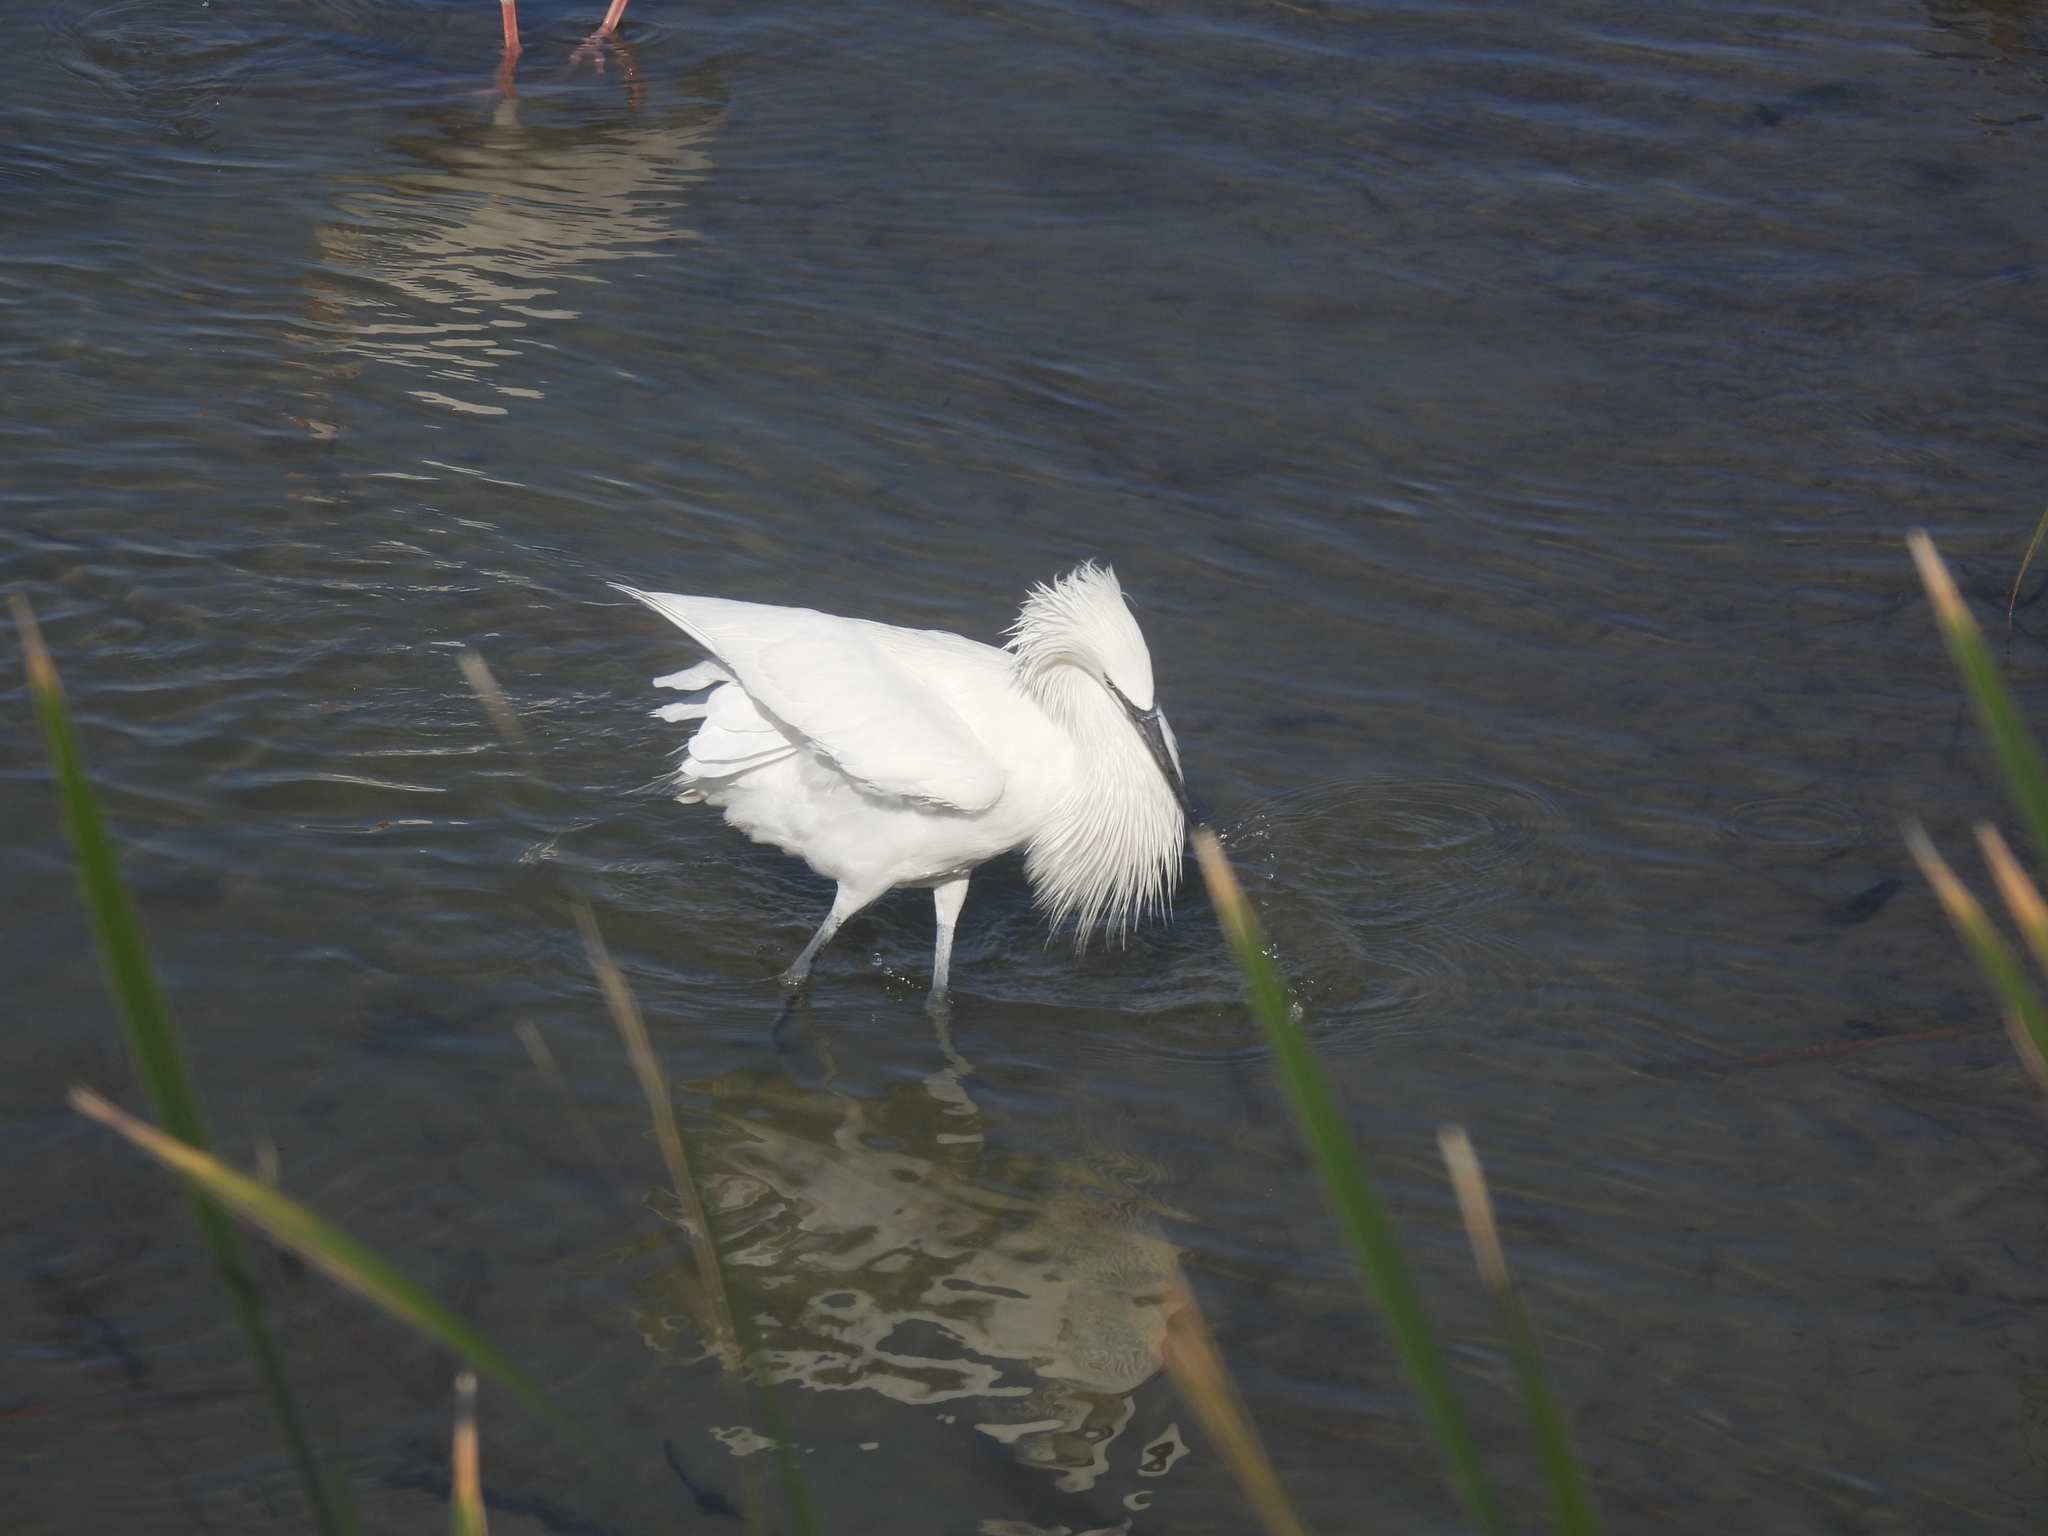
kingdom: Animalia
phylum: Chordata
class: Aves
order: Pelecaniformes
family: Ardeidae
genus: Egretta
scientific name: Egretta rufescens
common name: Reddish egret
